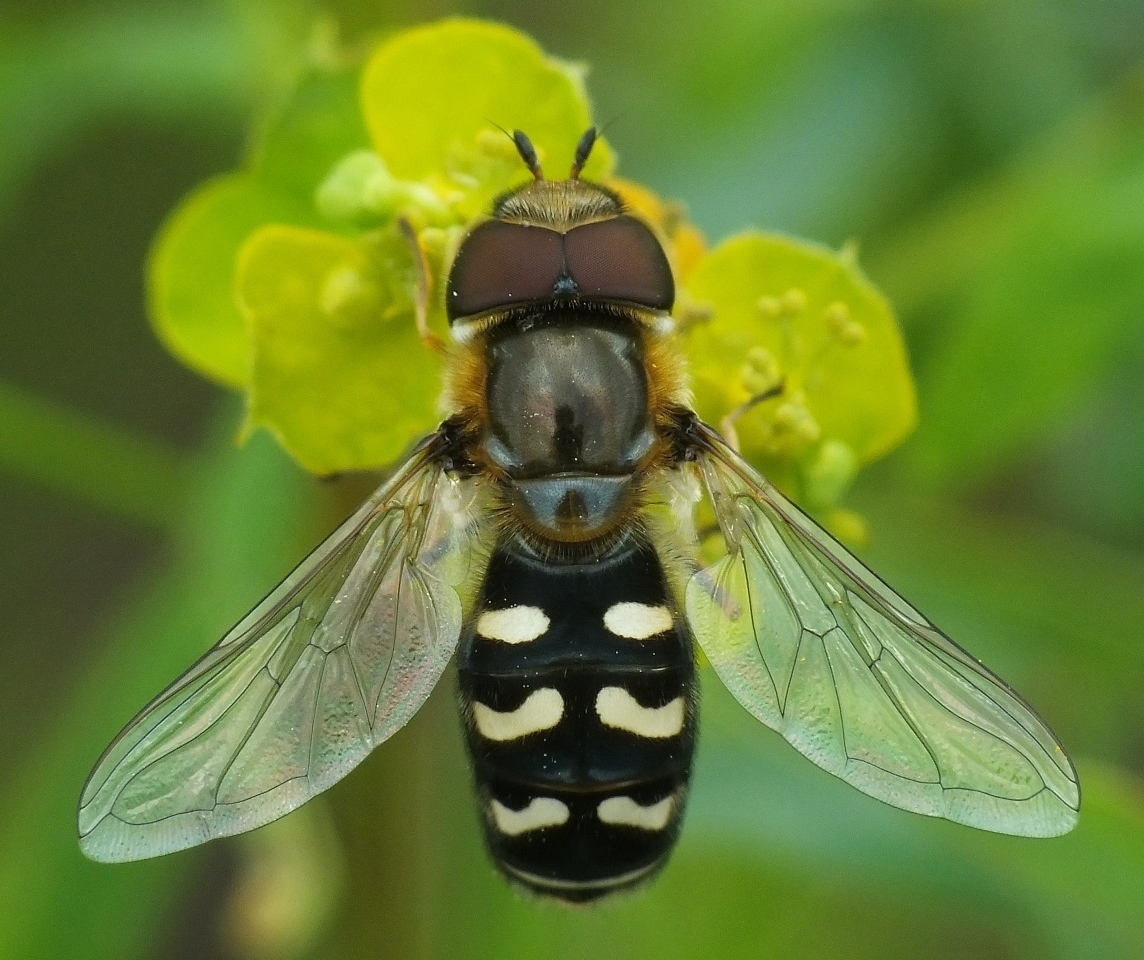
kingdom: Animalia
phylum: Arthropoda
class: Insecta
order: Diptera
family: Syrphidae
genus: Scaeva
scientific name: Scaeva pyrastri
